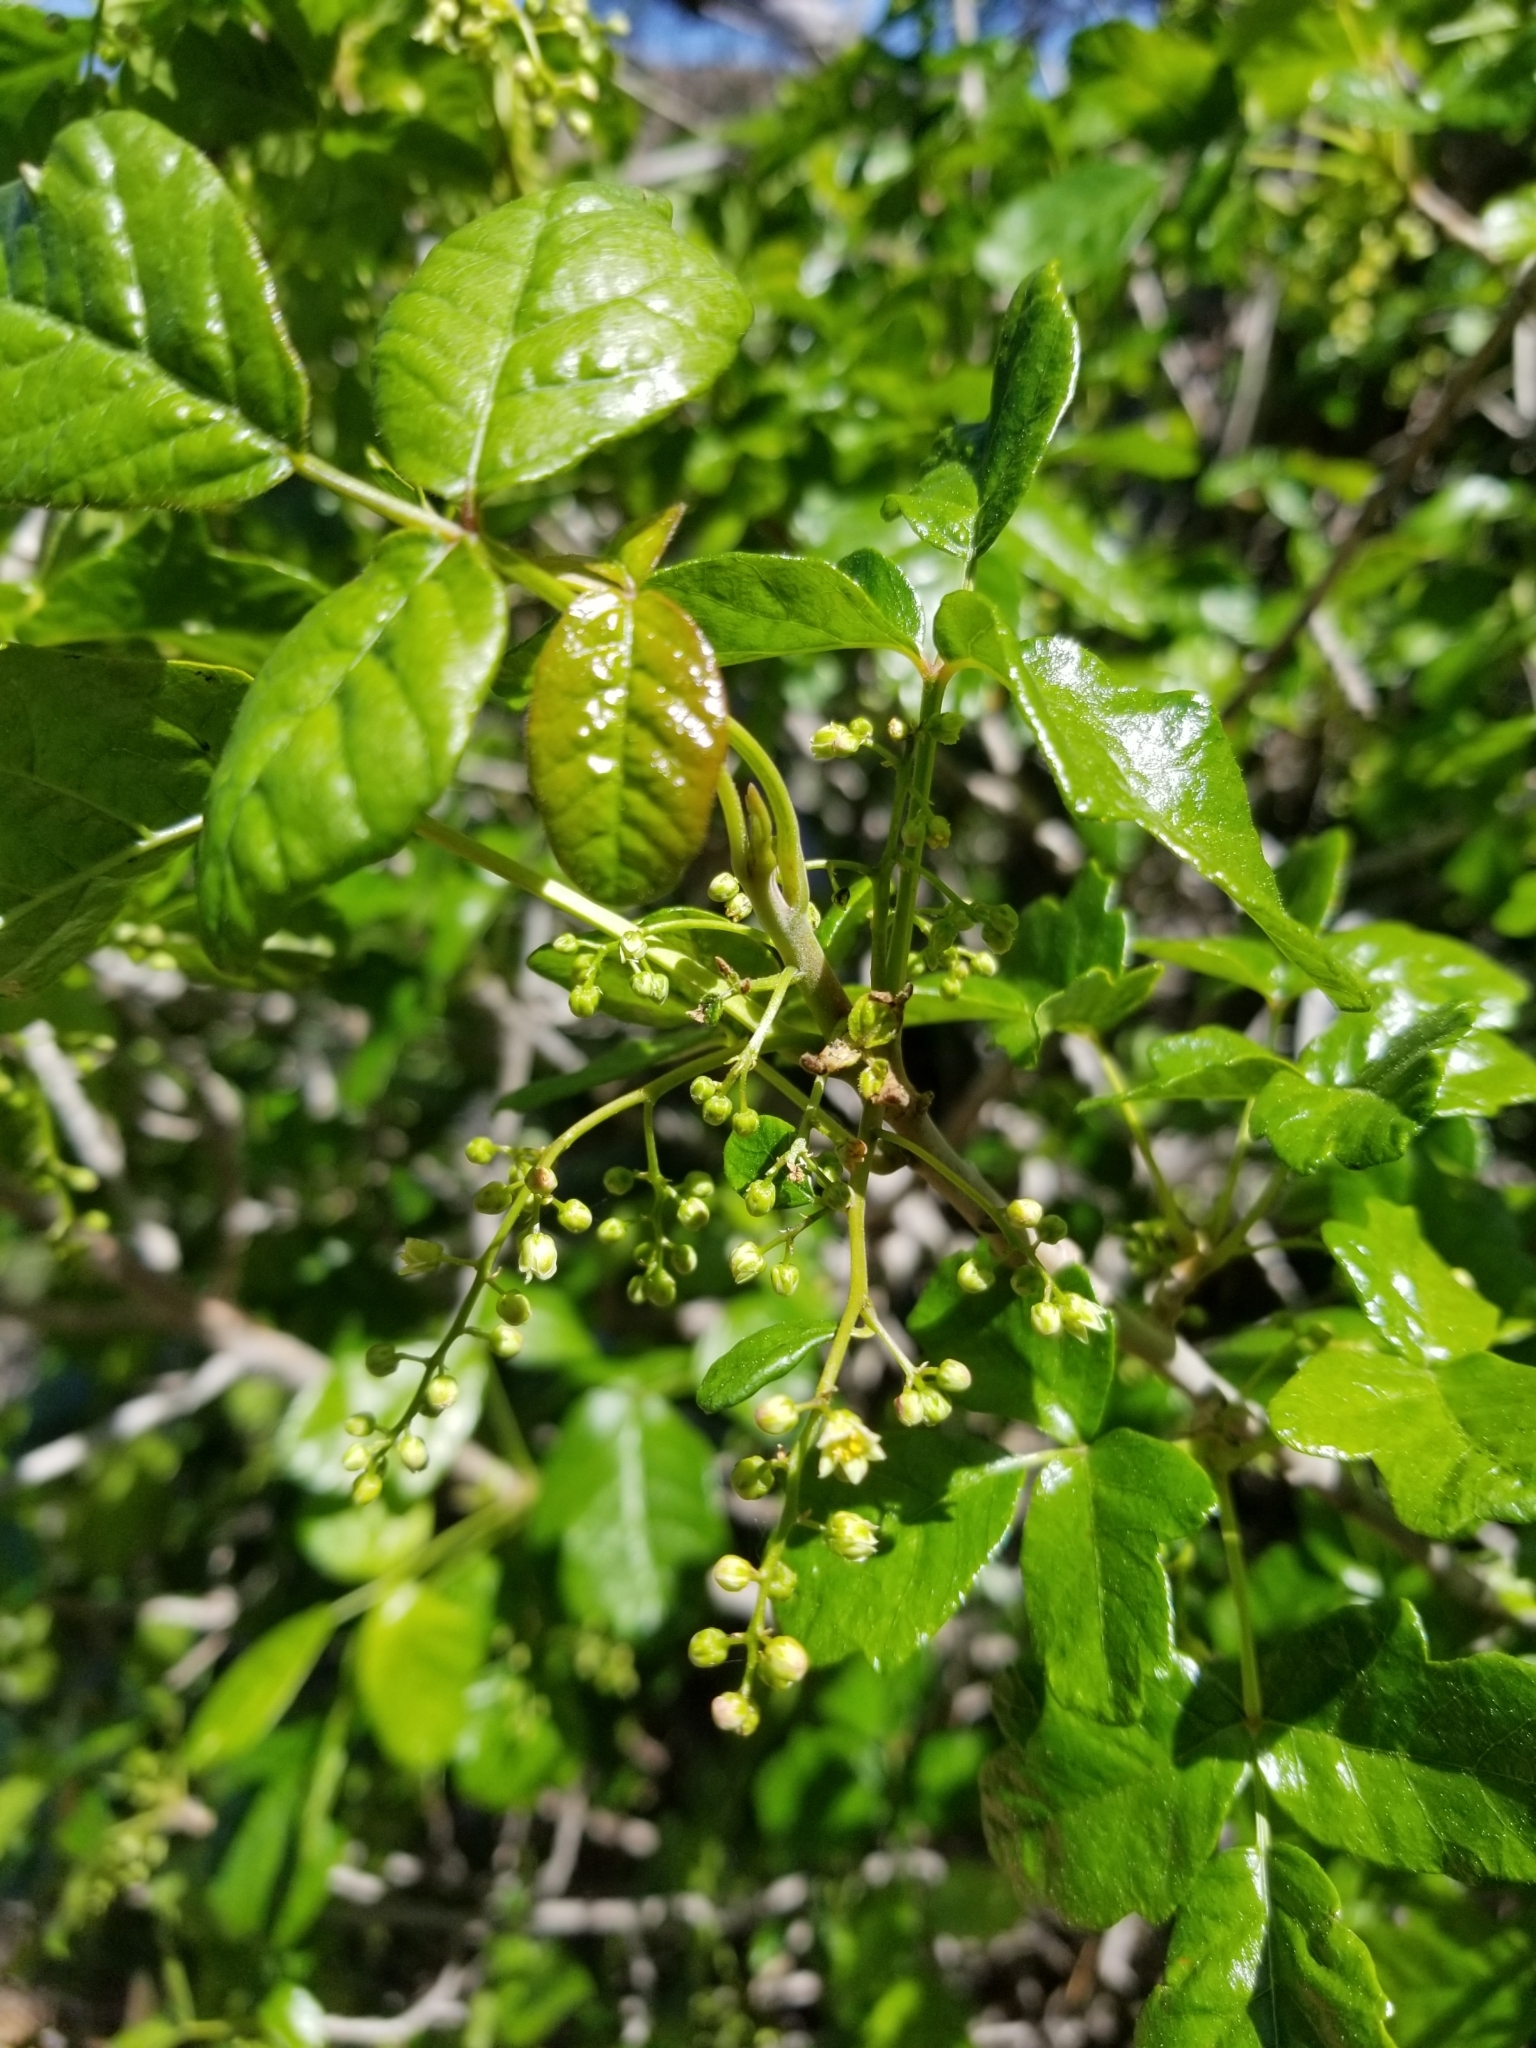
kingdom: Plantae
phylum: Tracheophyta
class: Magnoliopsida
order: Sapindales
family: Anacardiaceae
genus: Toxicodendron
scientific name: Toxicodendron diversilobum
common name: Pacific poison-oak
